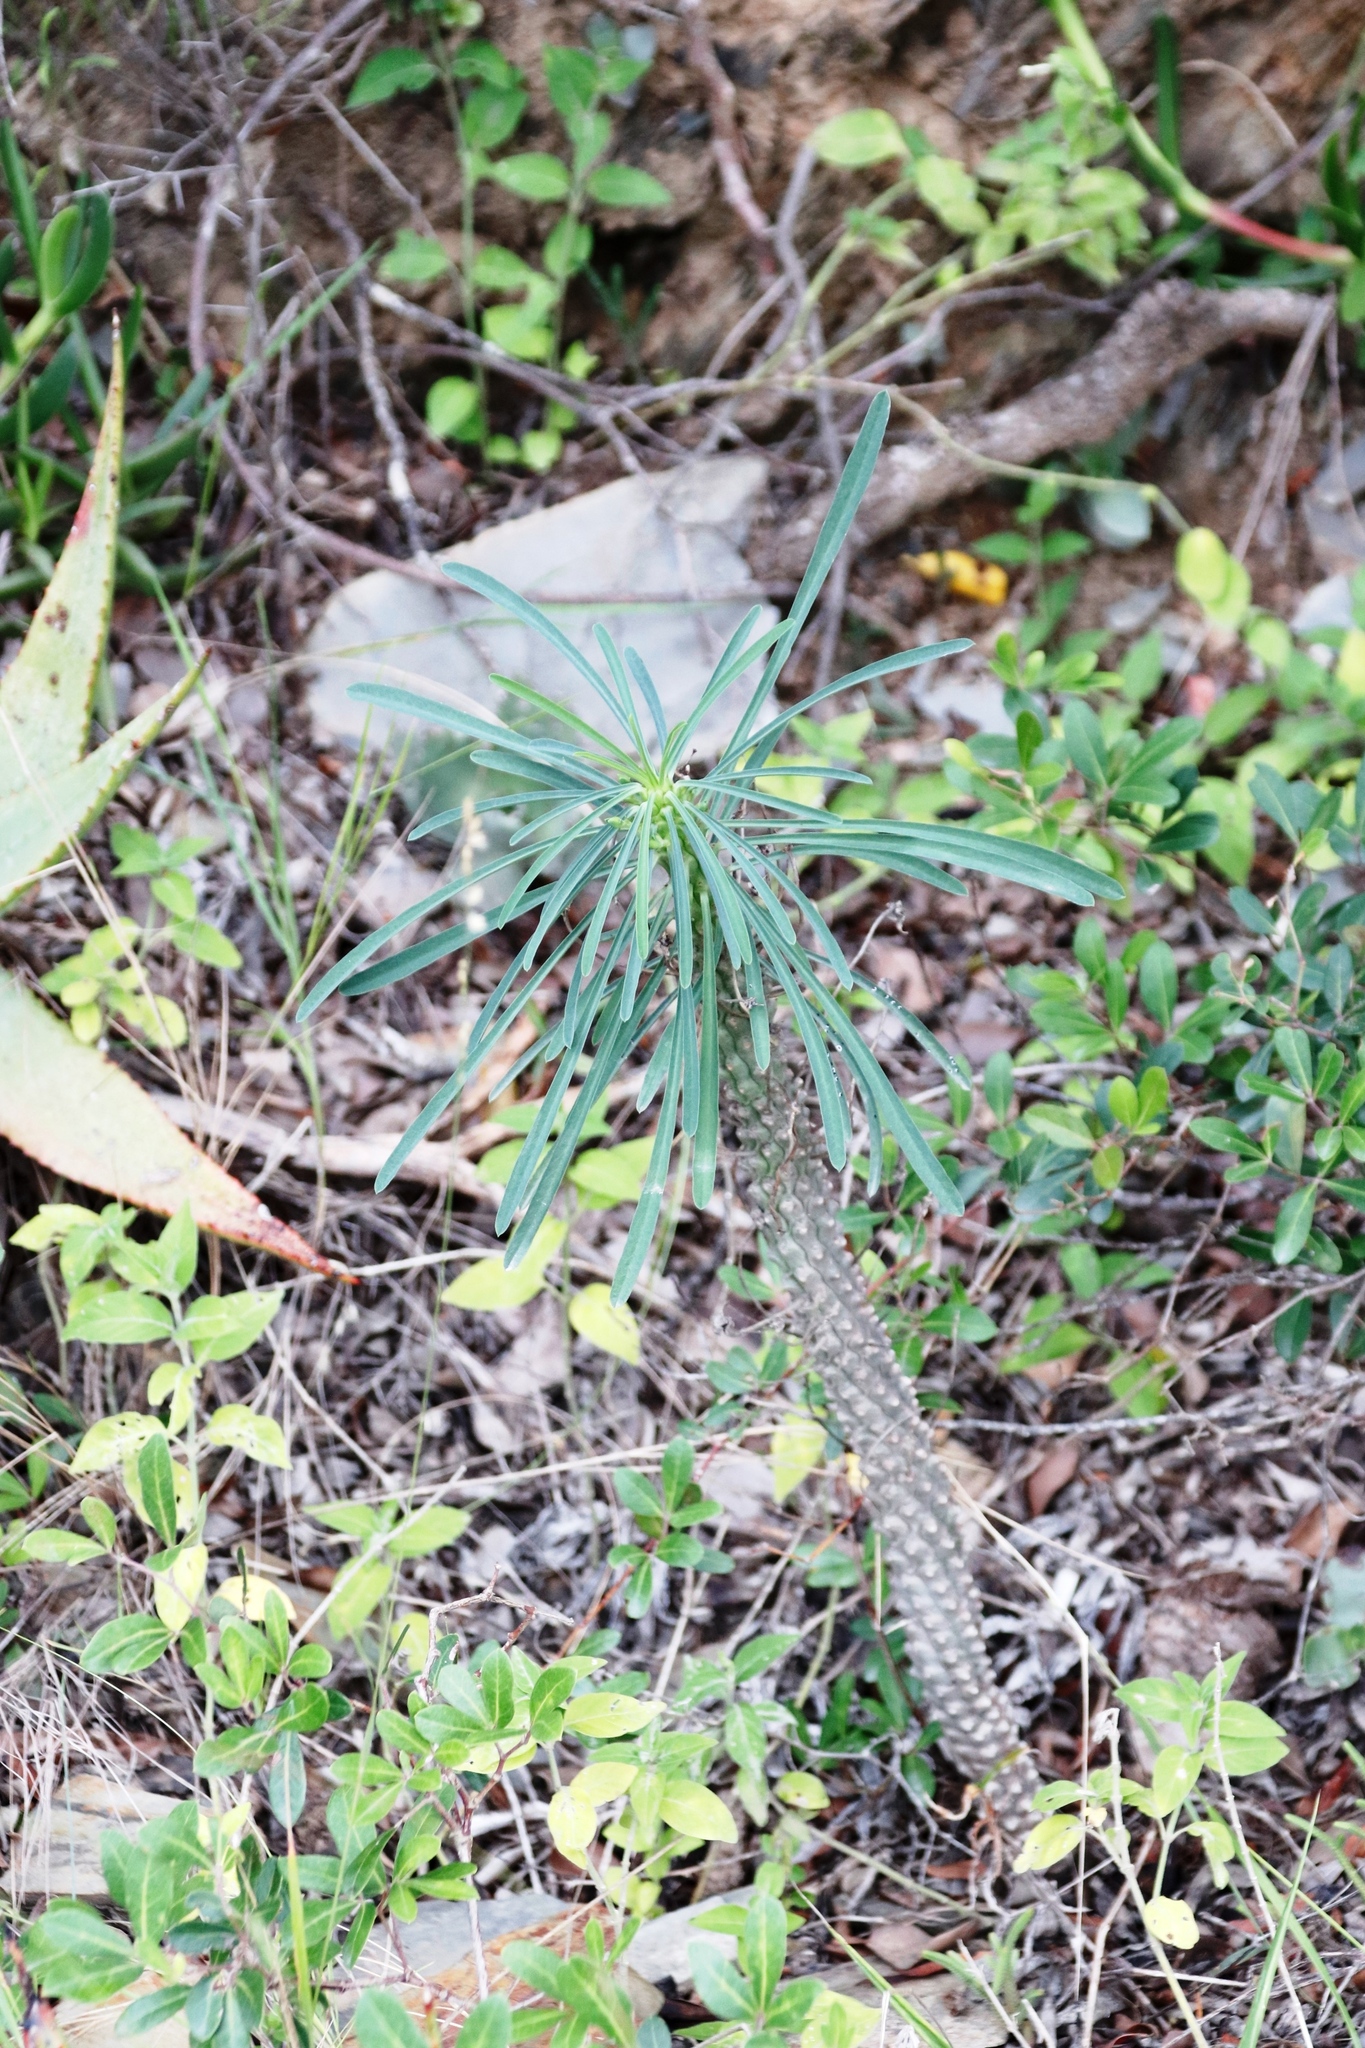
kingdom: Plantae
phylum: Tracheophyta
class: Magnoliopsida
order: Malpighiales
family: Euphorbiaceae
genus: Euphorbia
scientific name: Euphorbia clava
